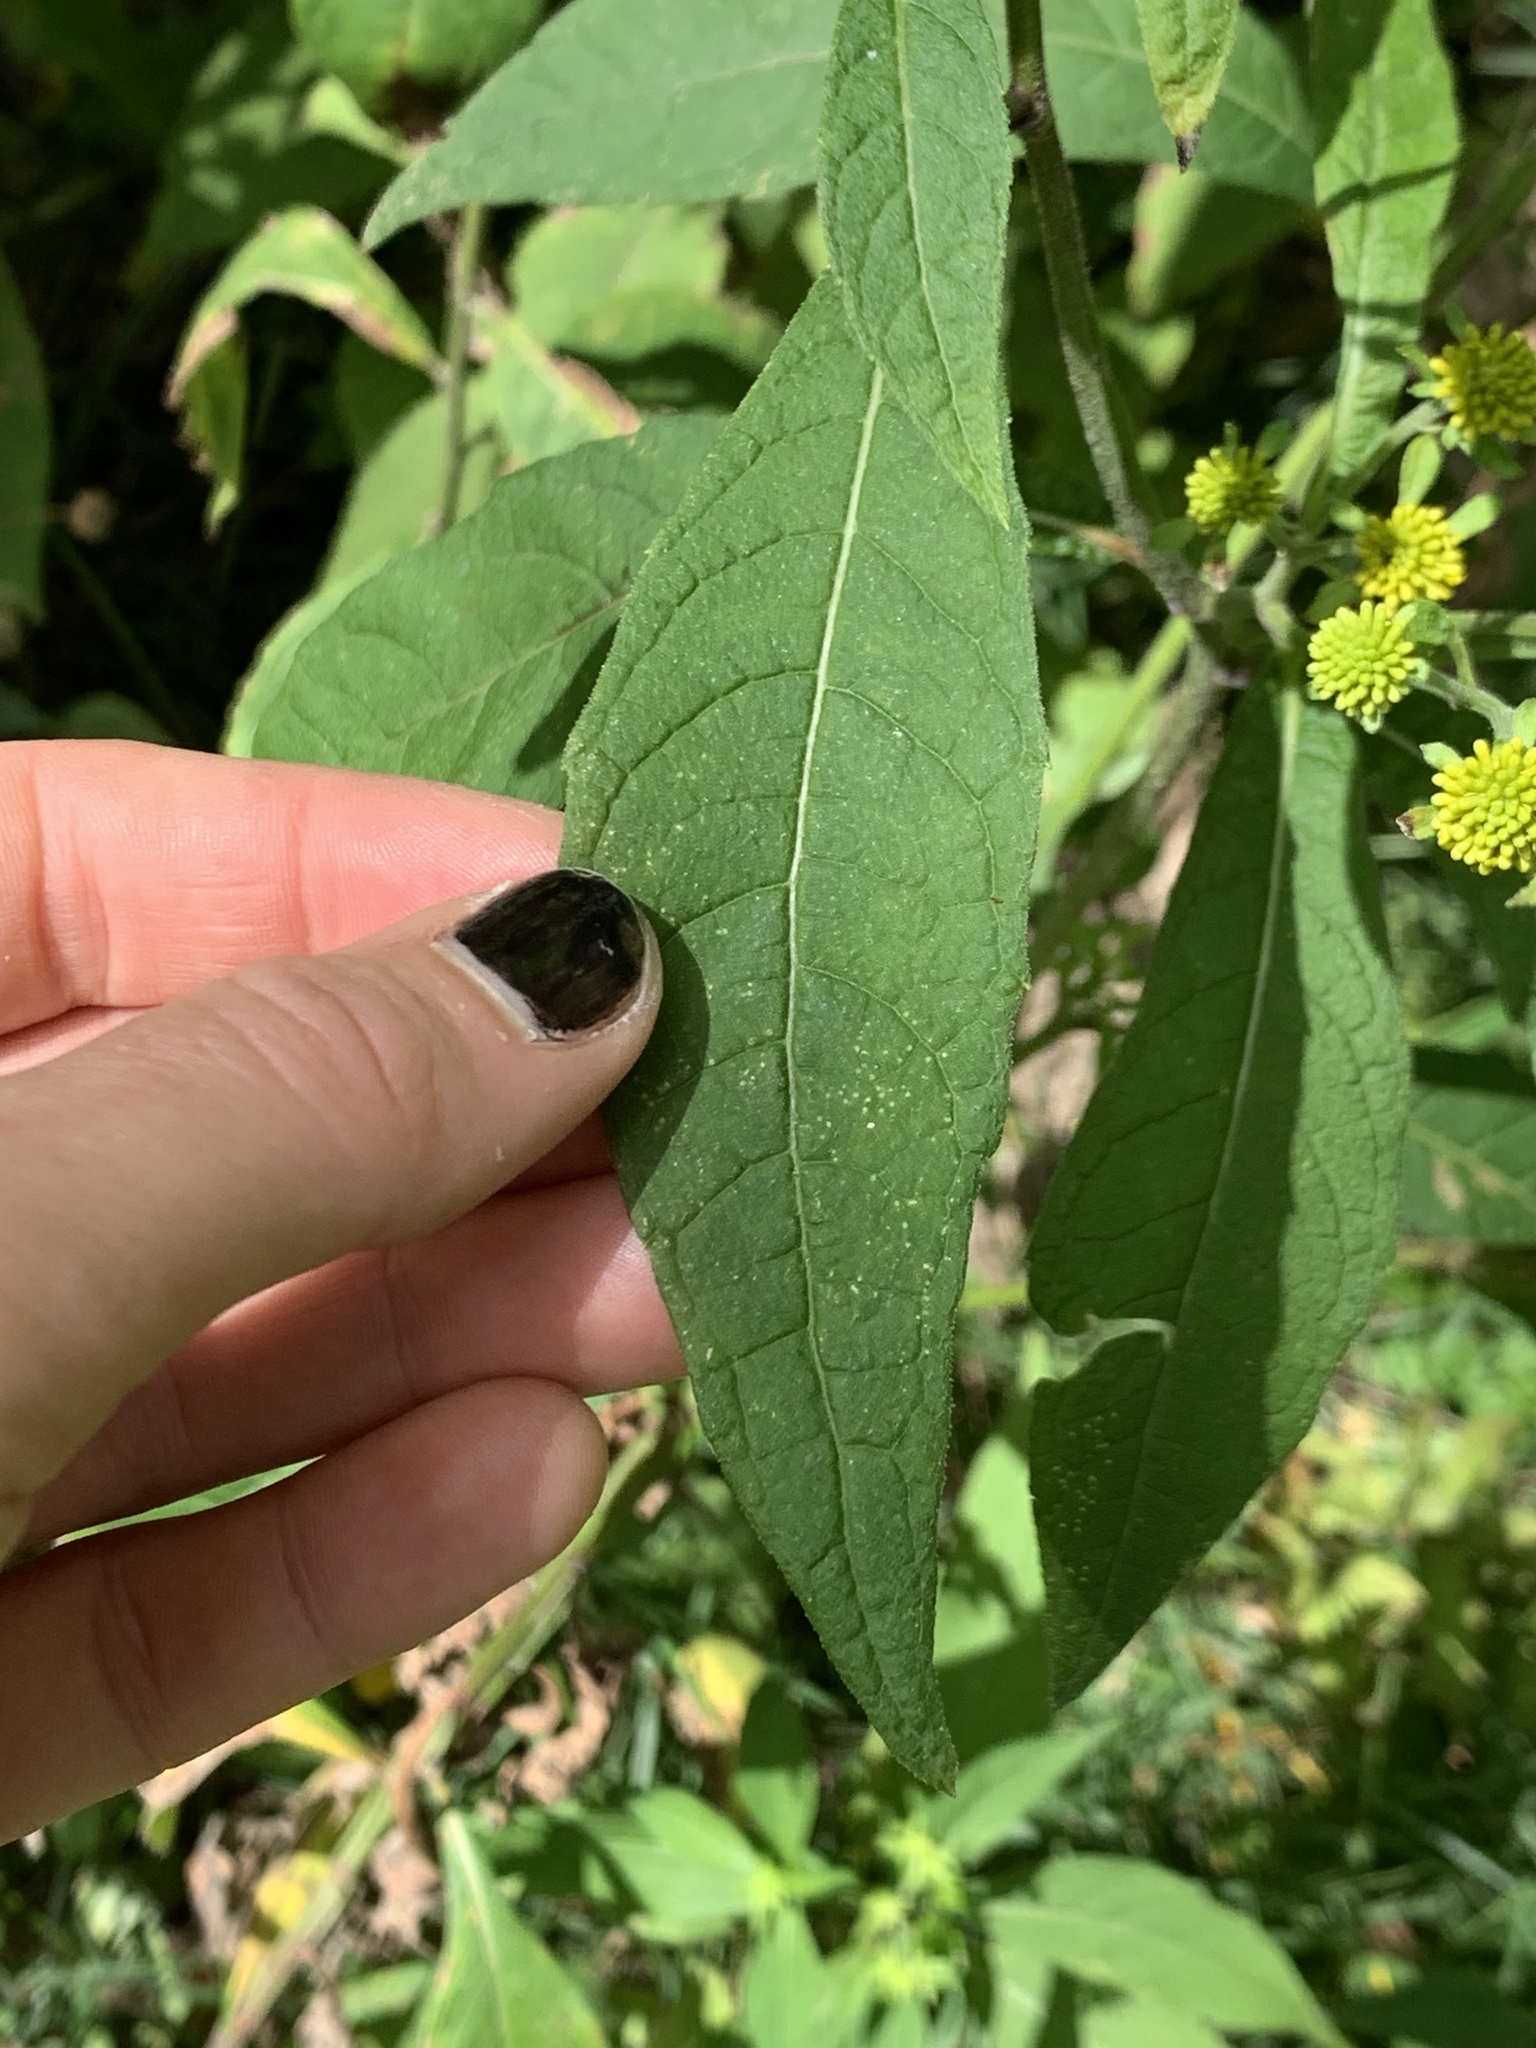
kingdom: Plantae
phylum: Tracheophyta
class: Magnoliopsida
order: Asterales
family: Asteraceae
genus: Verbesina
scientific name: Verbesina alternifolia
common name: Wingstem
